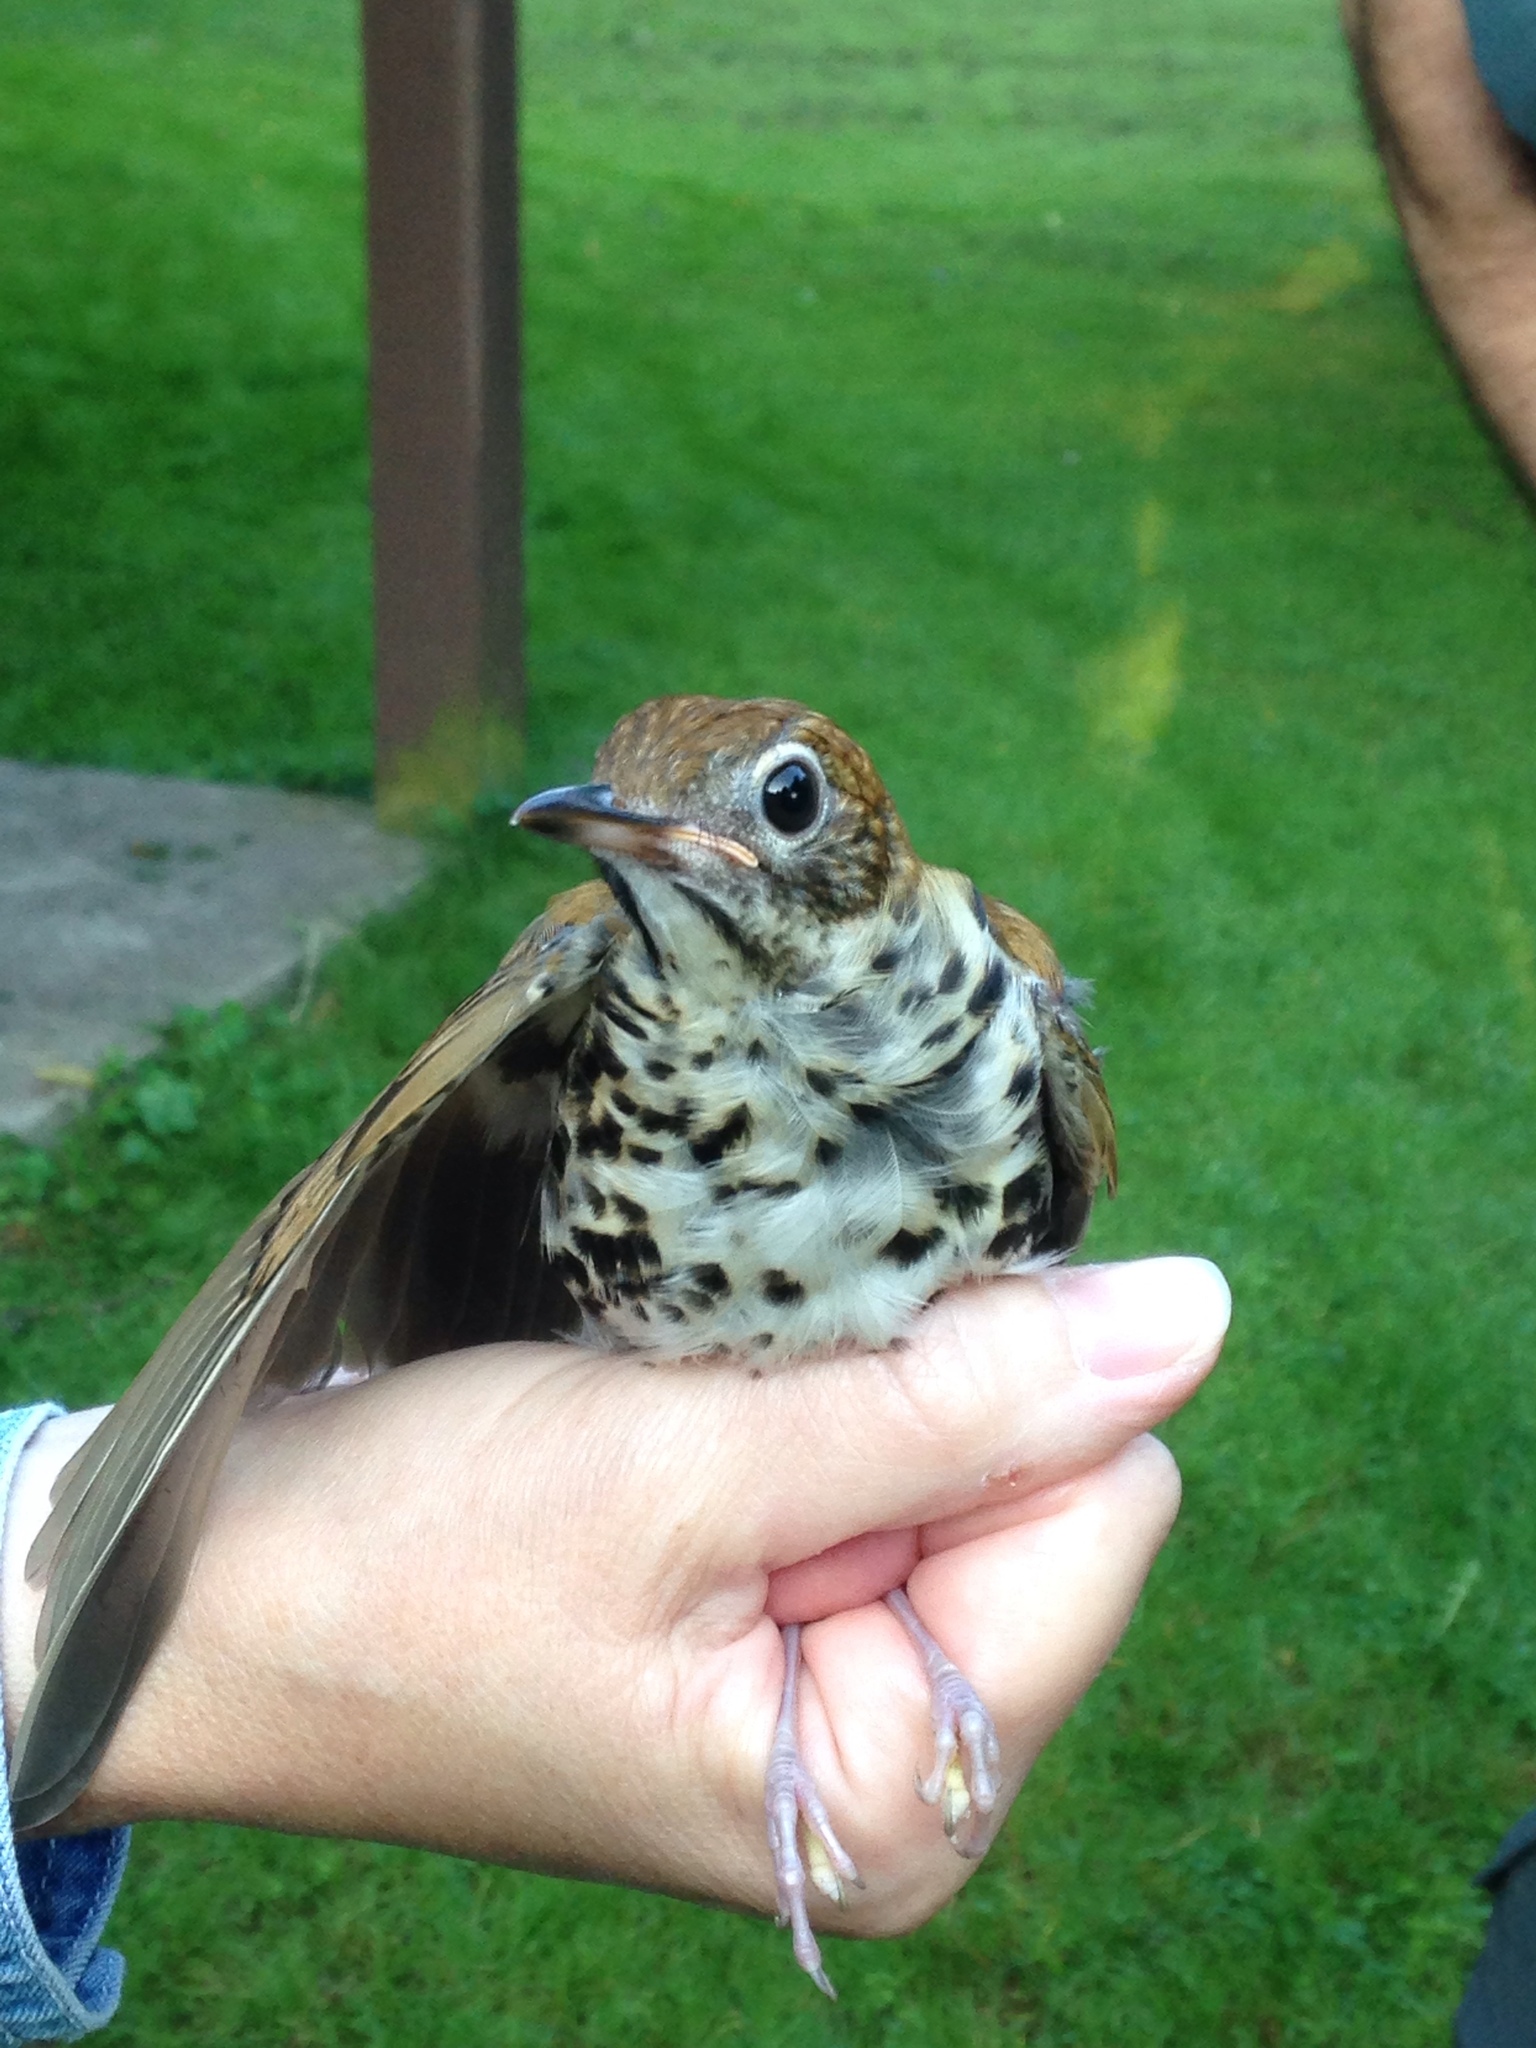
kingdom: Animalia
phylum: Chordata
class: Aves
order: Passeriformes
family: Turdidae
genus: Hylocichla
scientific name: Hylocichla mustelina
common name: Wood thrush
